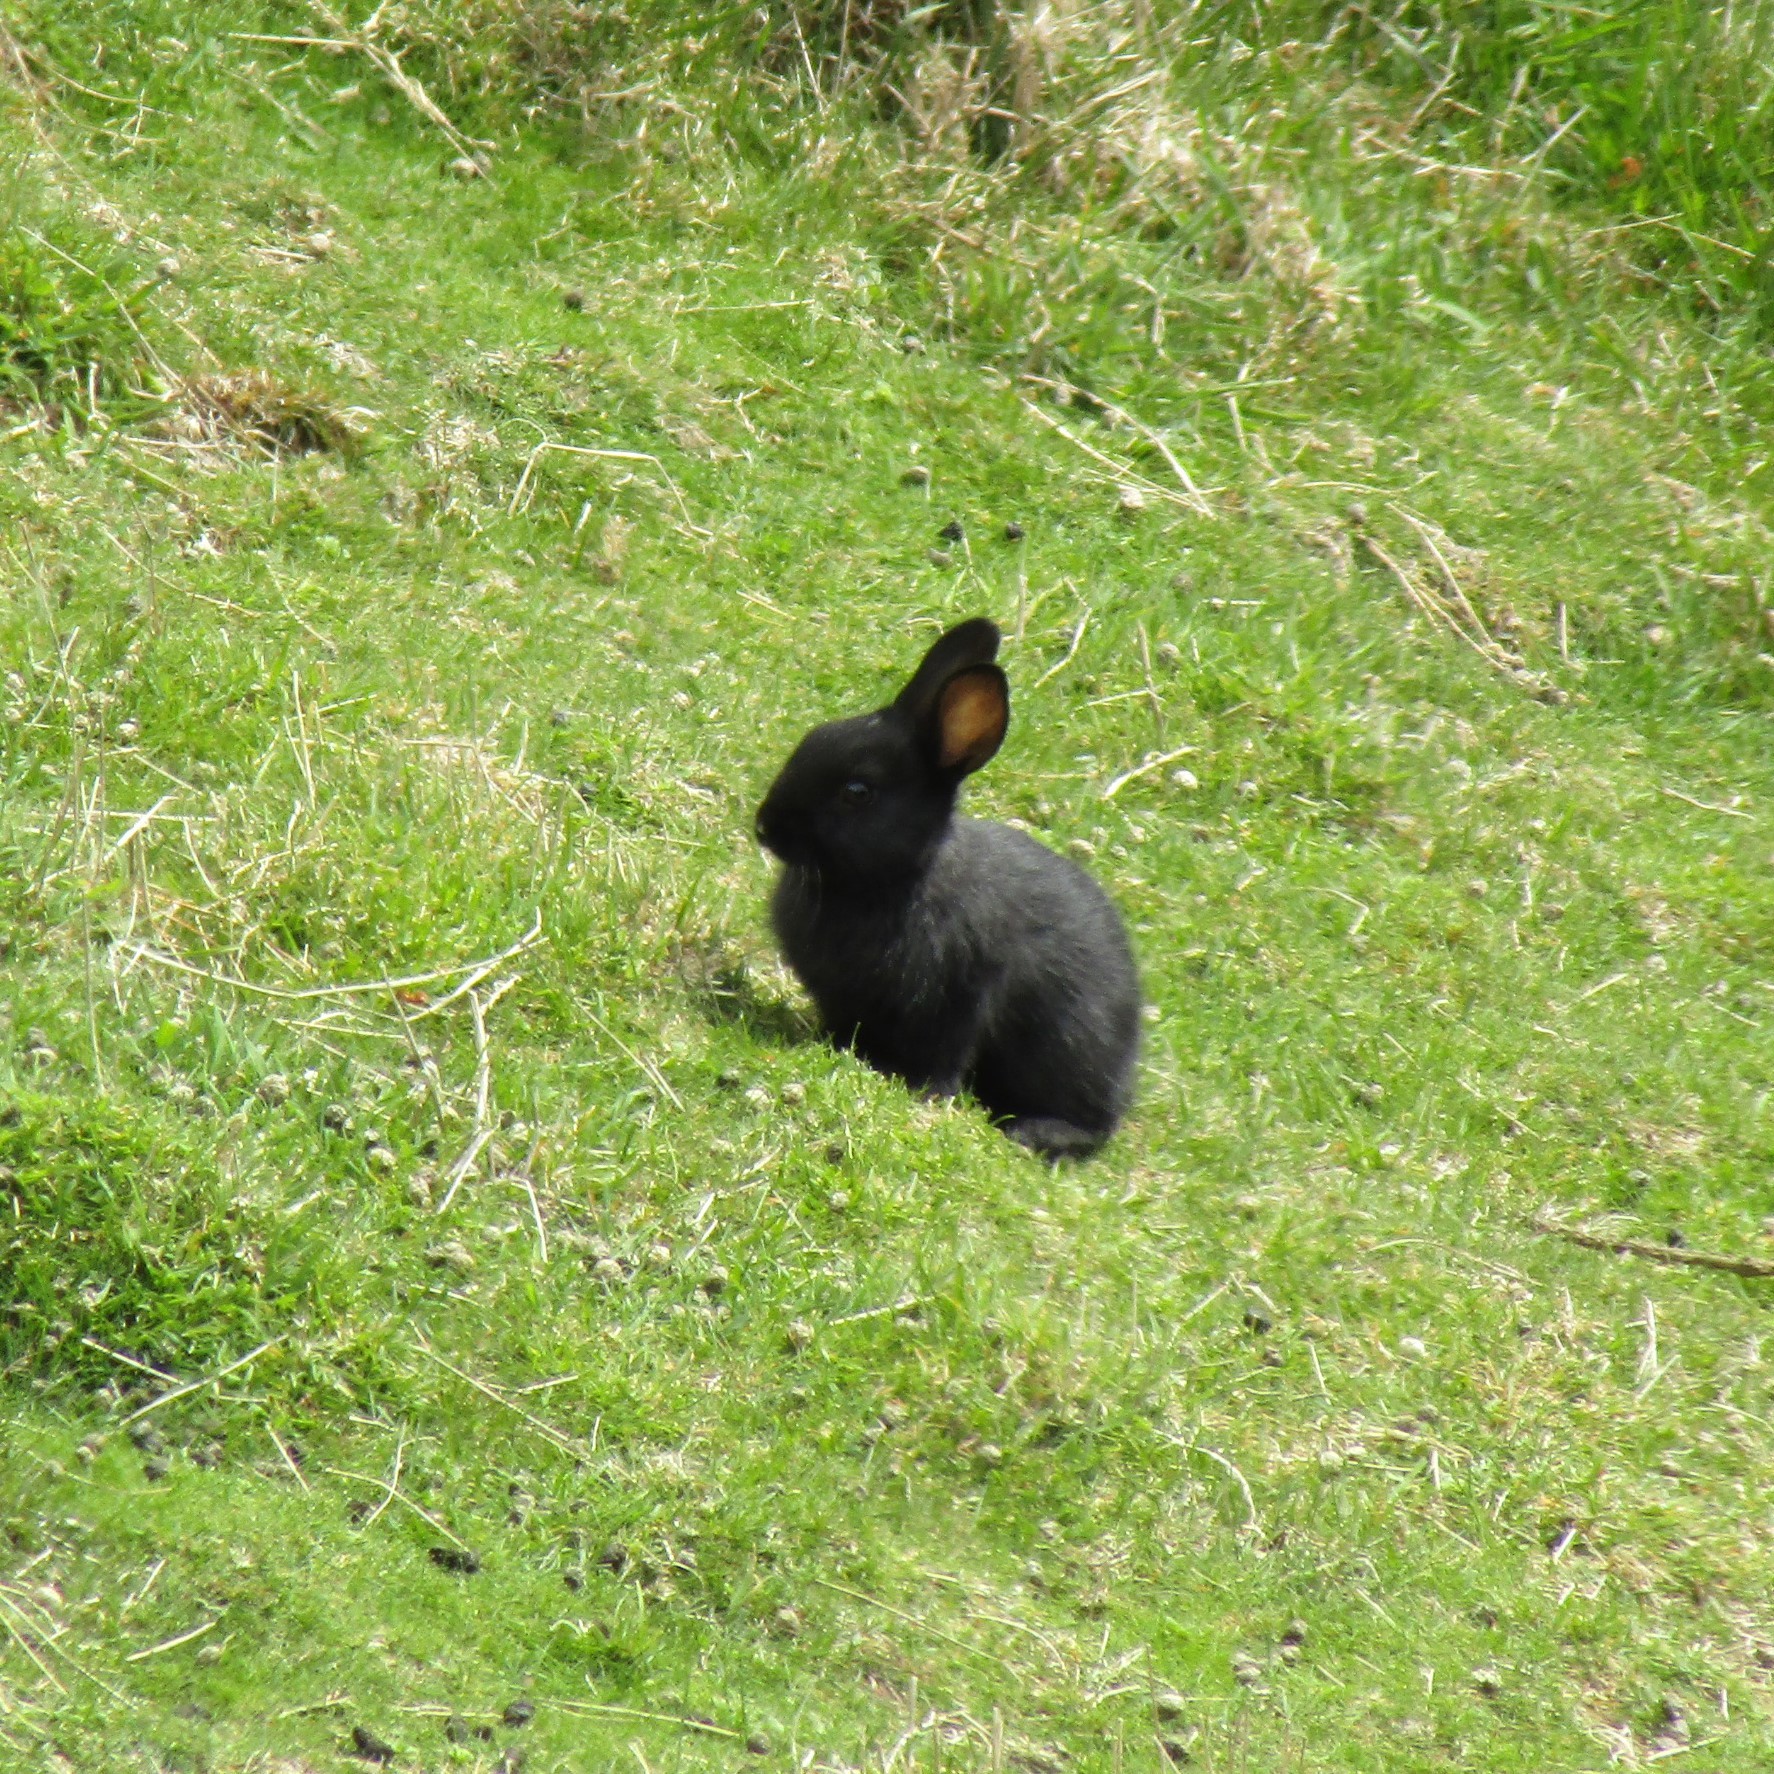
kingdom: Animalia
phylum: Chordata
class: Mammalia
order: Lagomorpha
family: Leporidae
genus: Oryctolagus
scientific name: Oryctolagus cuniculus
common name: European rabbit
